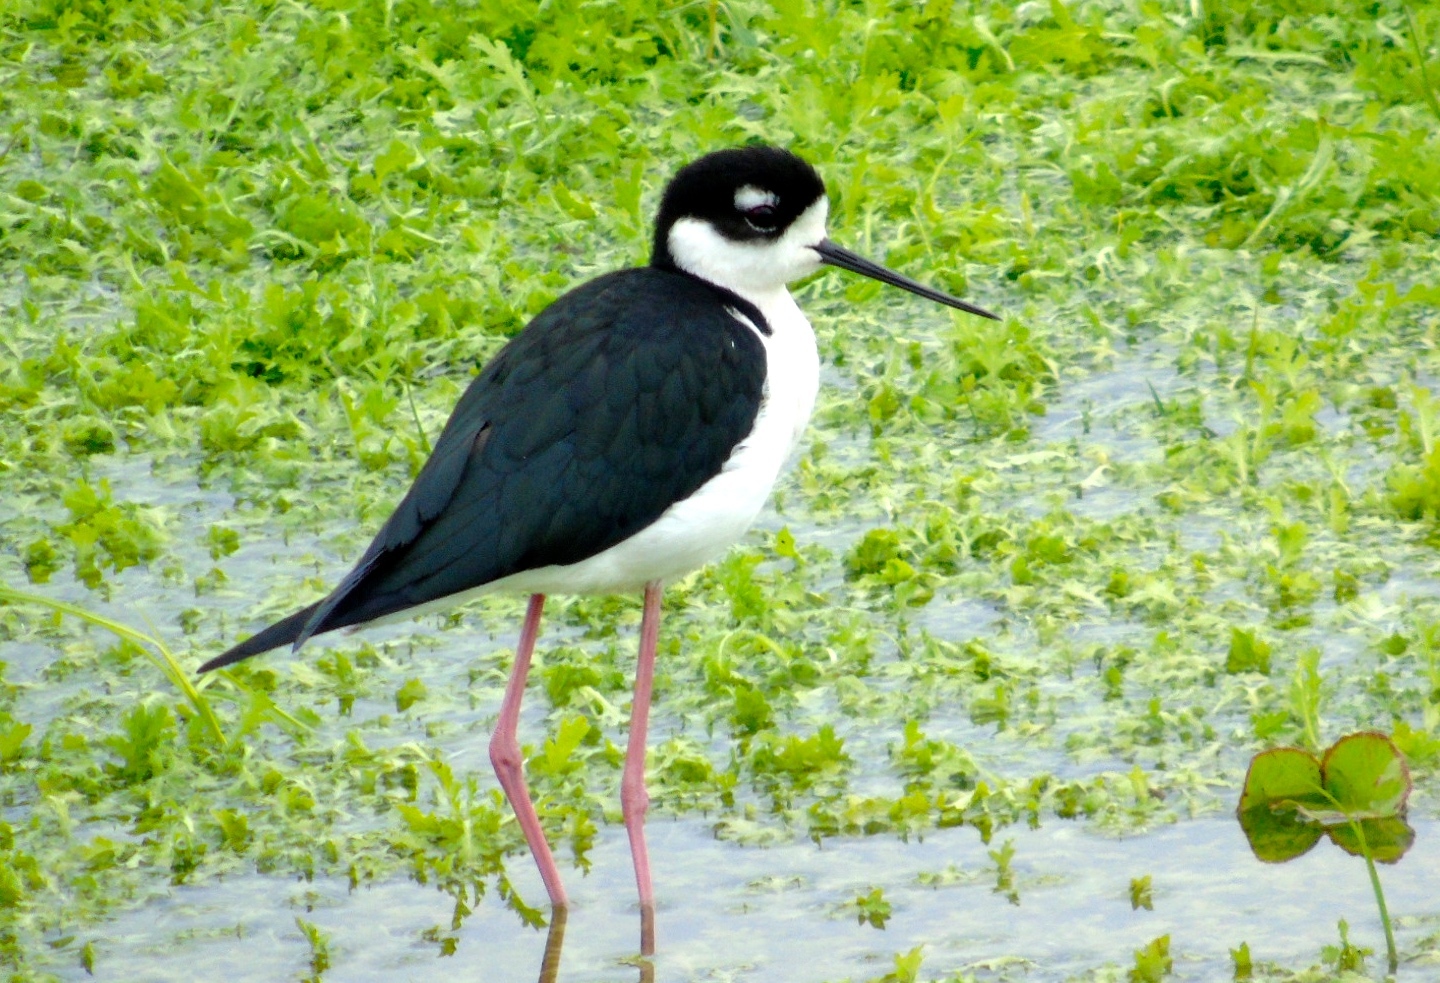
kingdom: Animalia
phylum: Chordata
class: Aves
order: Charadriiformes
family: Recurvirostridae
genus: Himantopus
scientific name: Himantopus mexicanus
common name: Black-necked stilt
